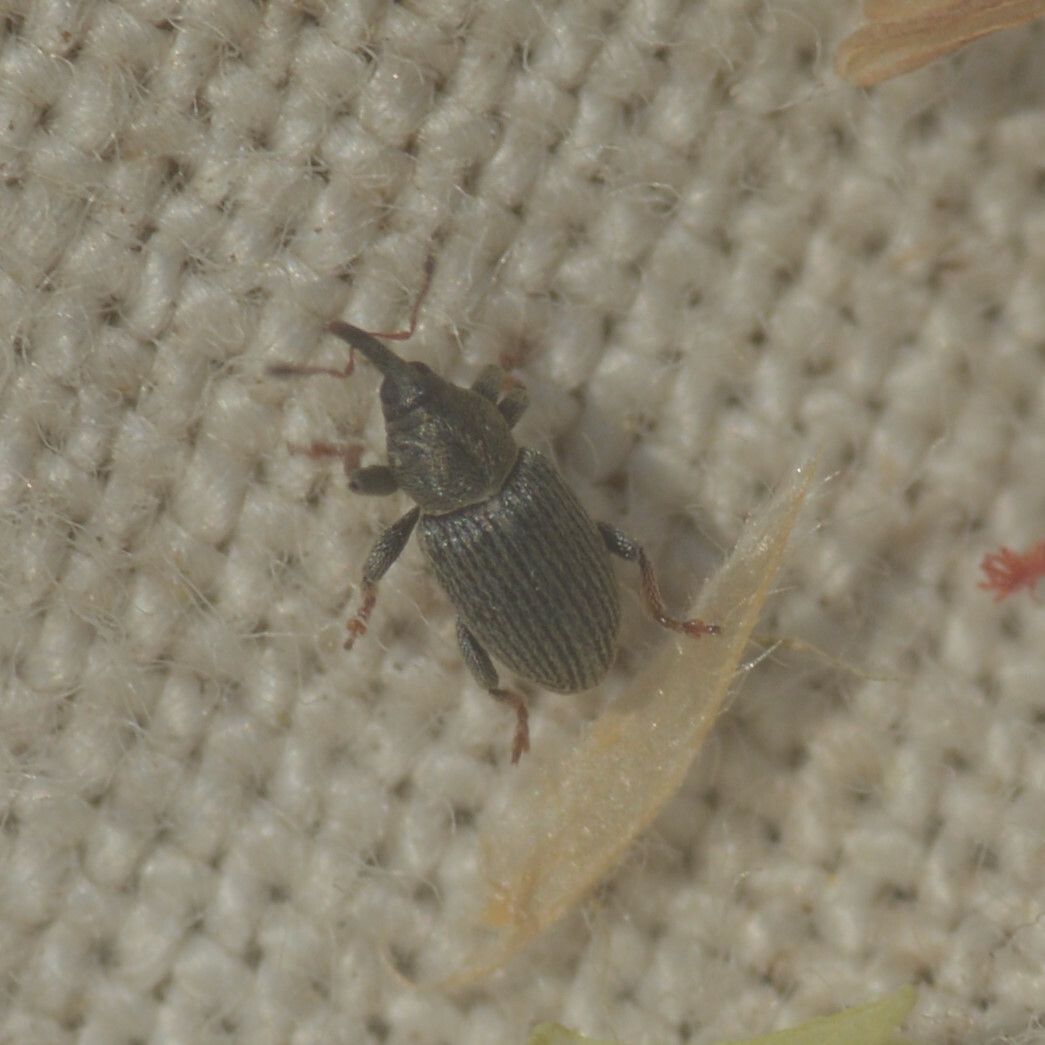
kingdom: Animalia
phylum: Arthropoda
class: Insecta
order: Coleoptera
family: Curculionidae
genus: Tychius
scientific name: Tychius picirostris
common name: Clover seed weevil
